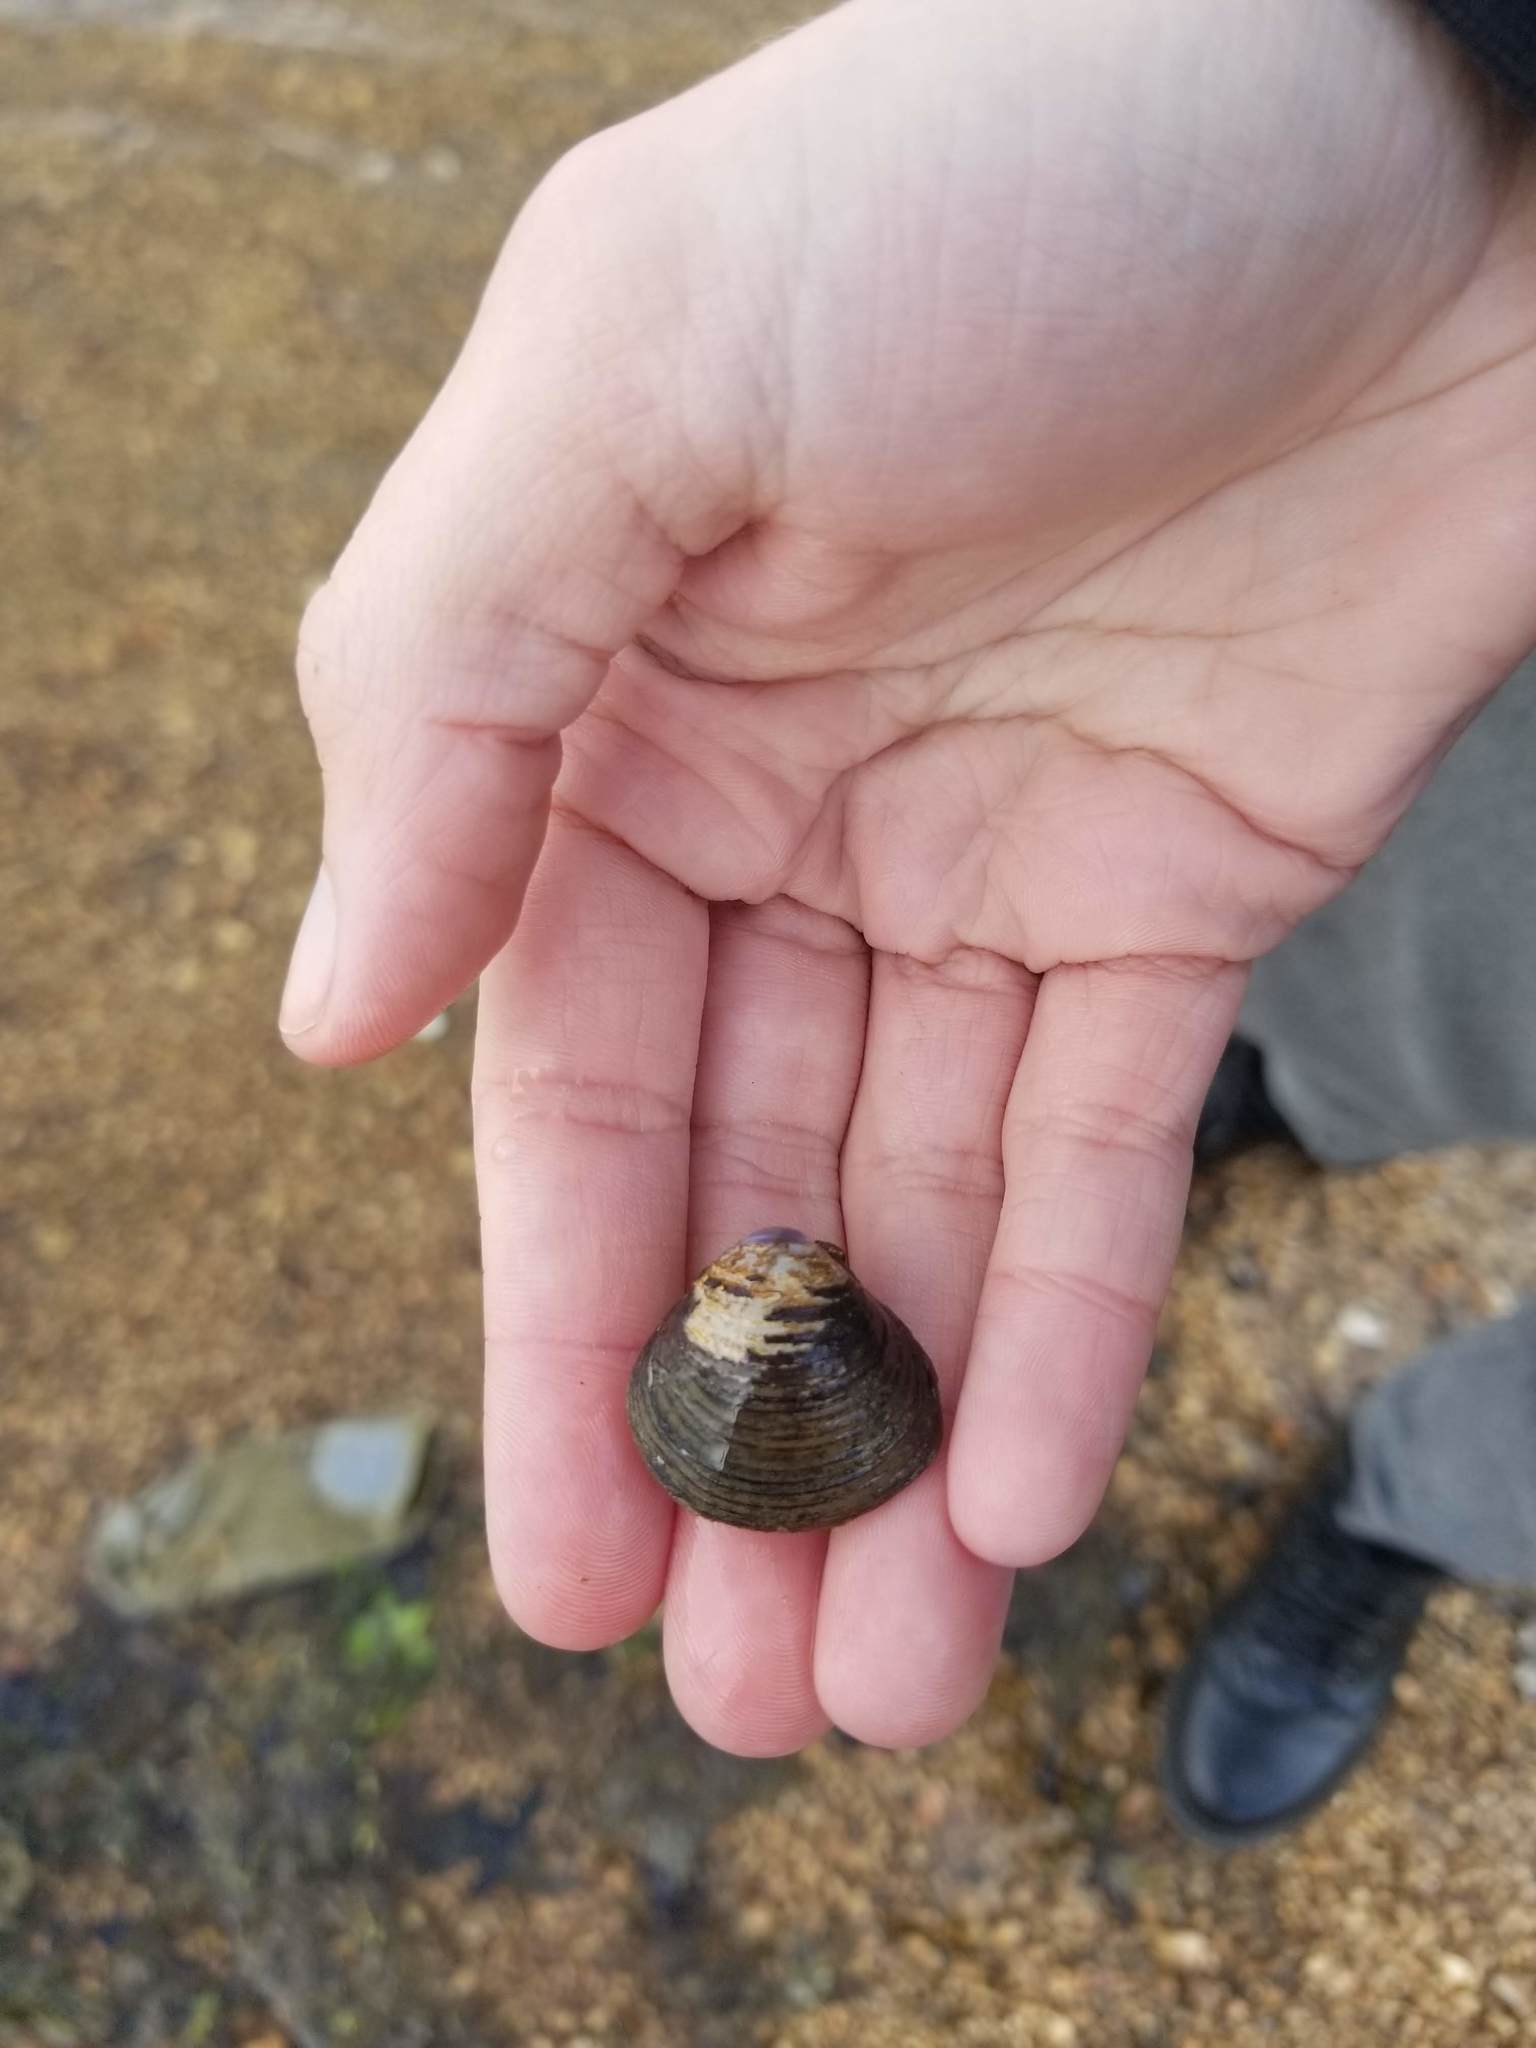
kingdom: Animalia
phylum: Mollusca
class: Bivalvia
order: Venerida
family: Cyrenidae
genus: Corbicula
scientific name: Corbicula fluminea
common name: Asian clam
